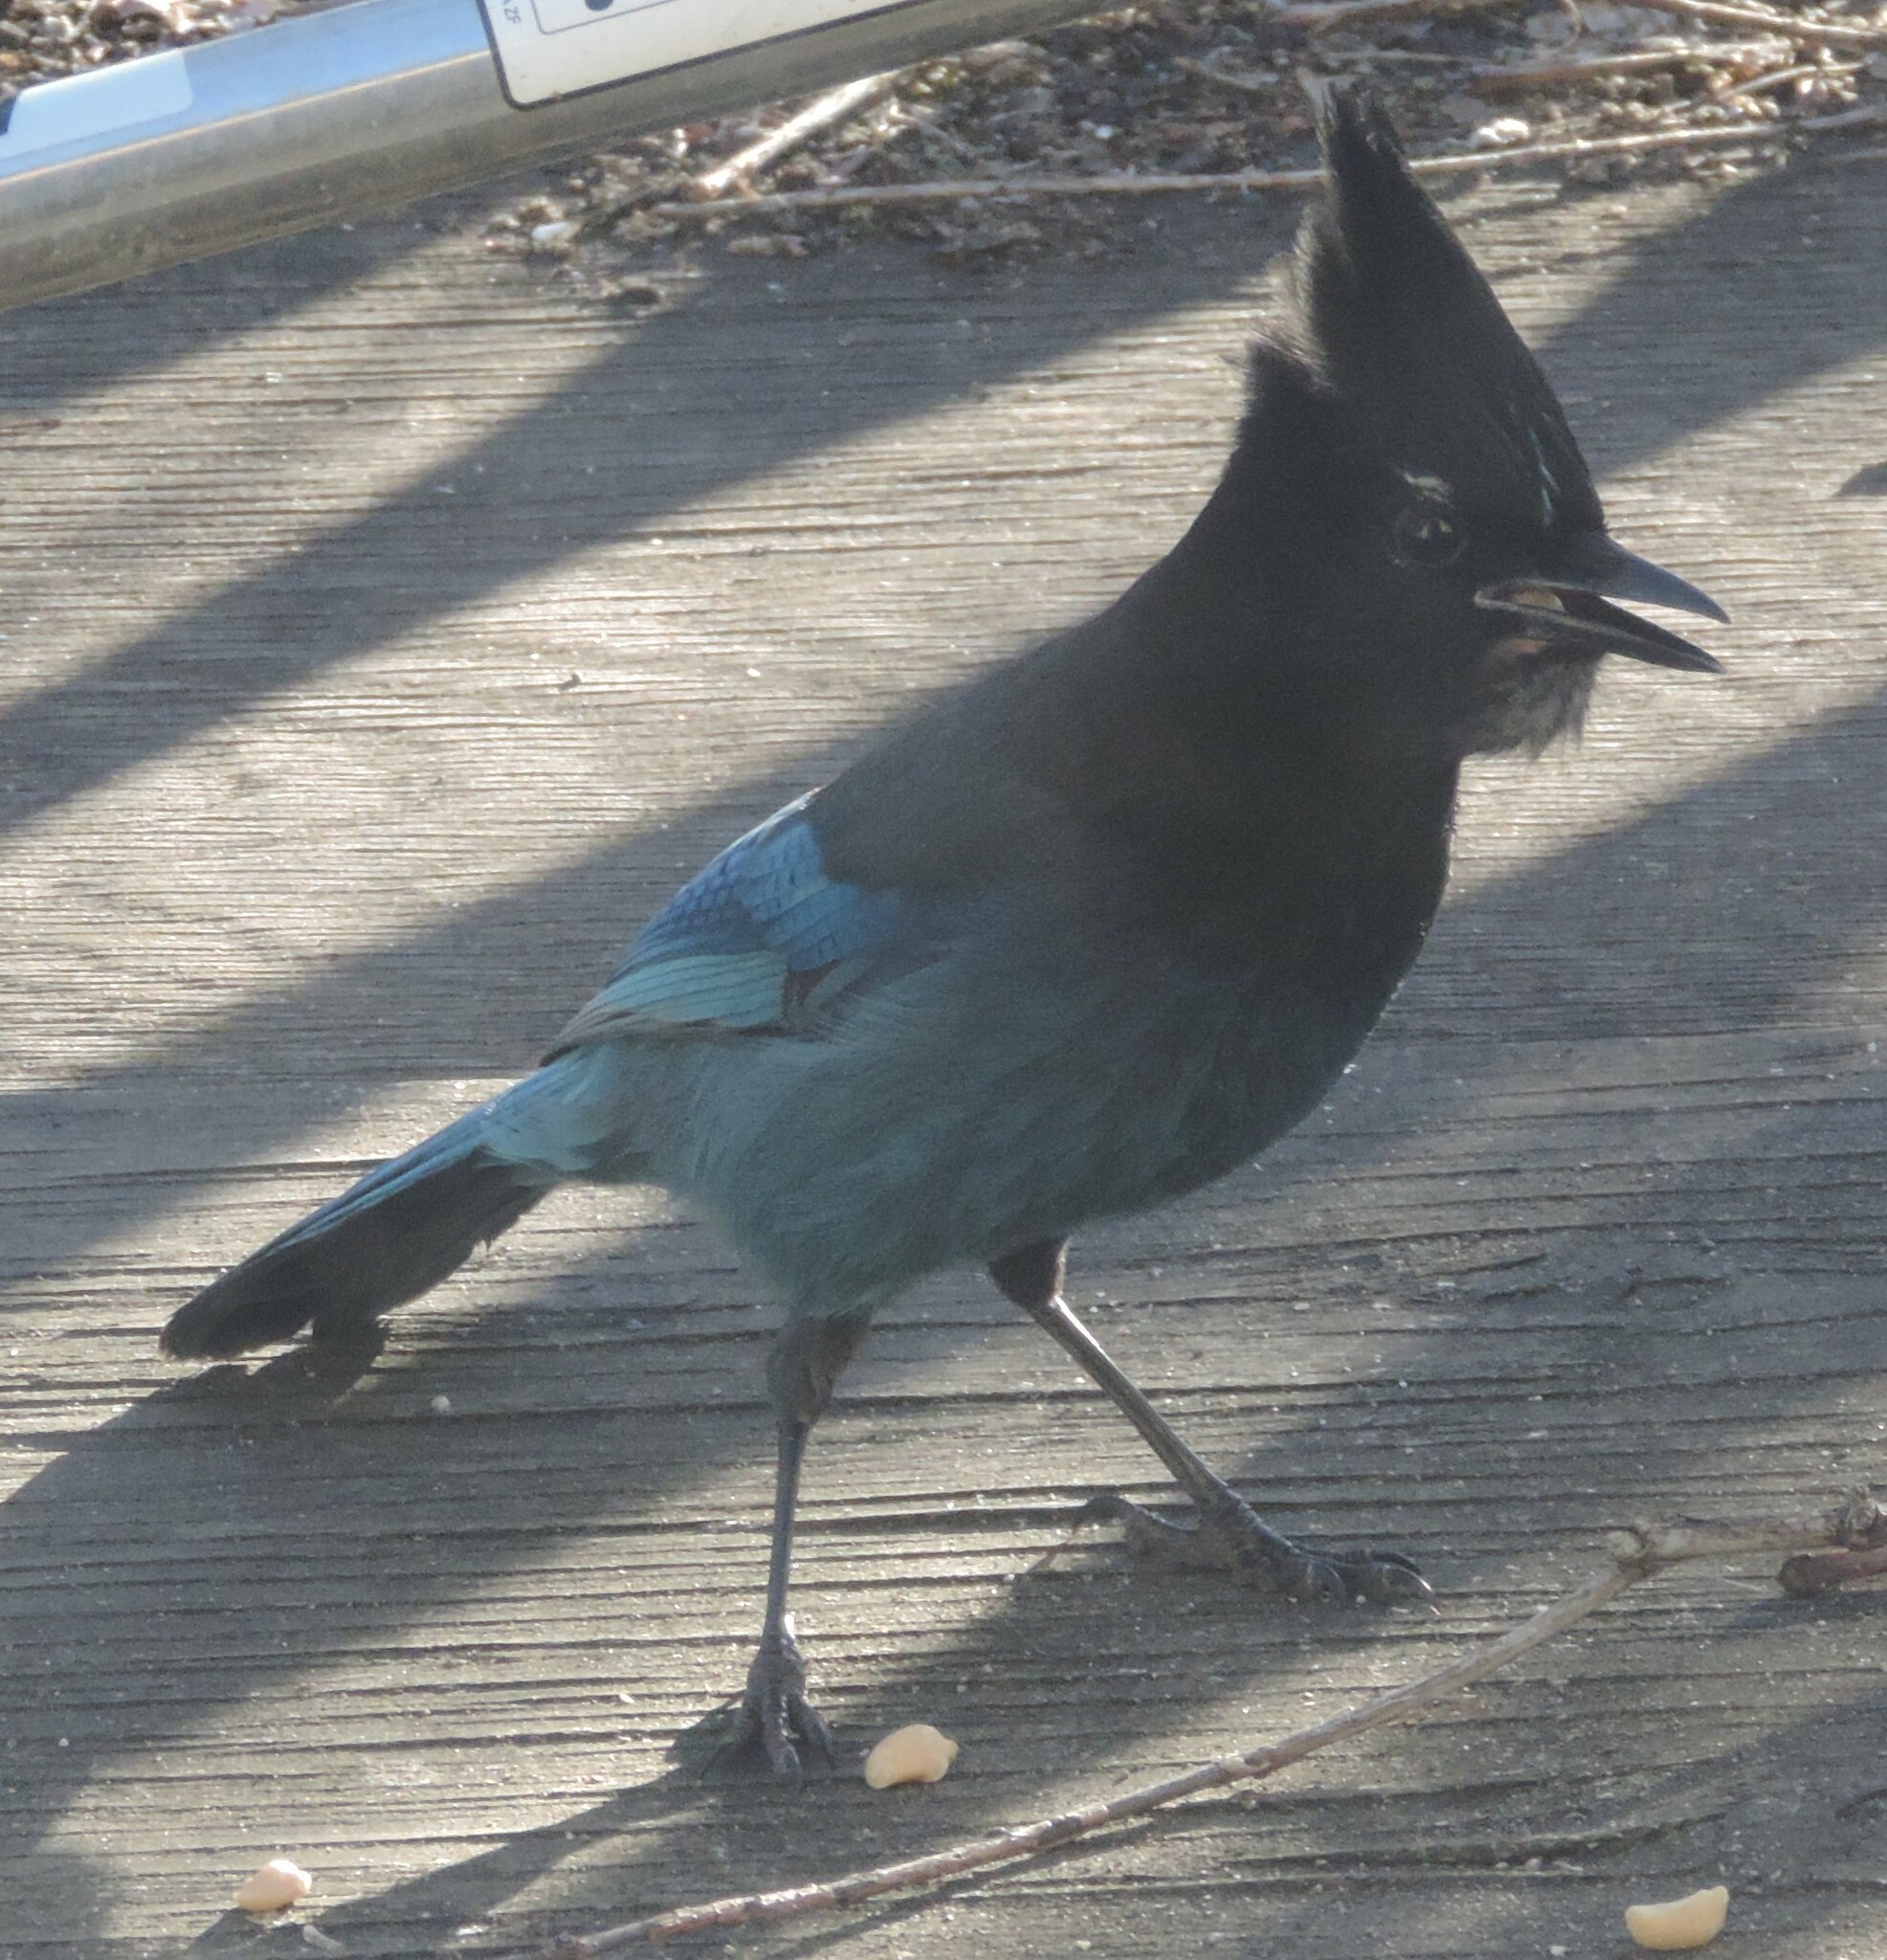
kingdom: Animalia
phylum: Chordata
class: Aves
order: Passeriformes
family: Corvidae
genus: Cyanocitta
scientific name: Cyanocitta stelleri
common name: Steller's jay
